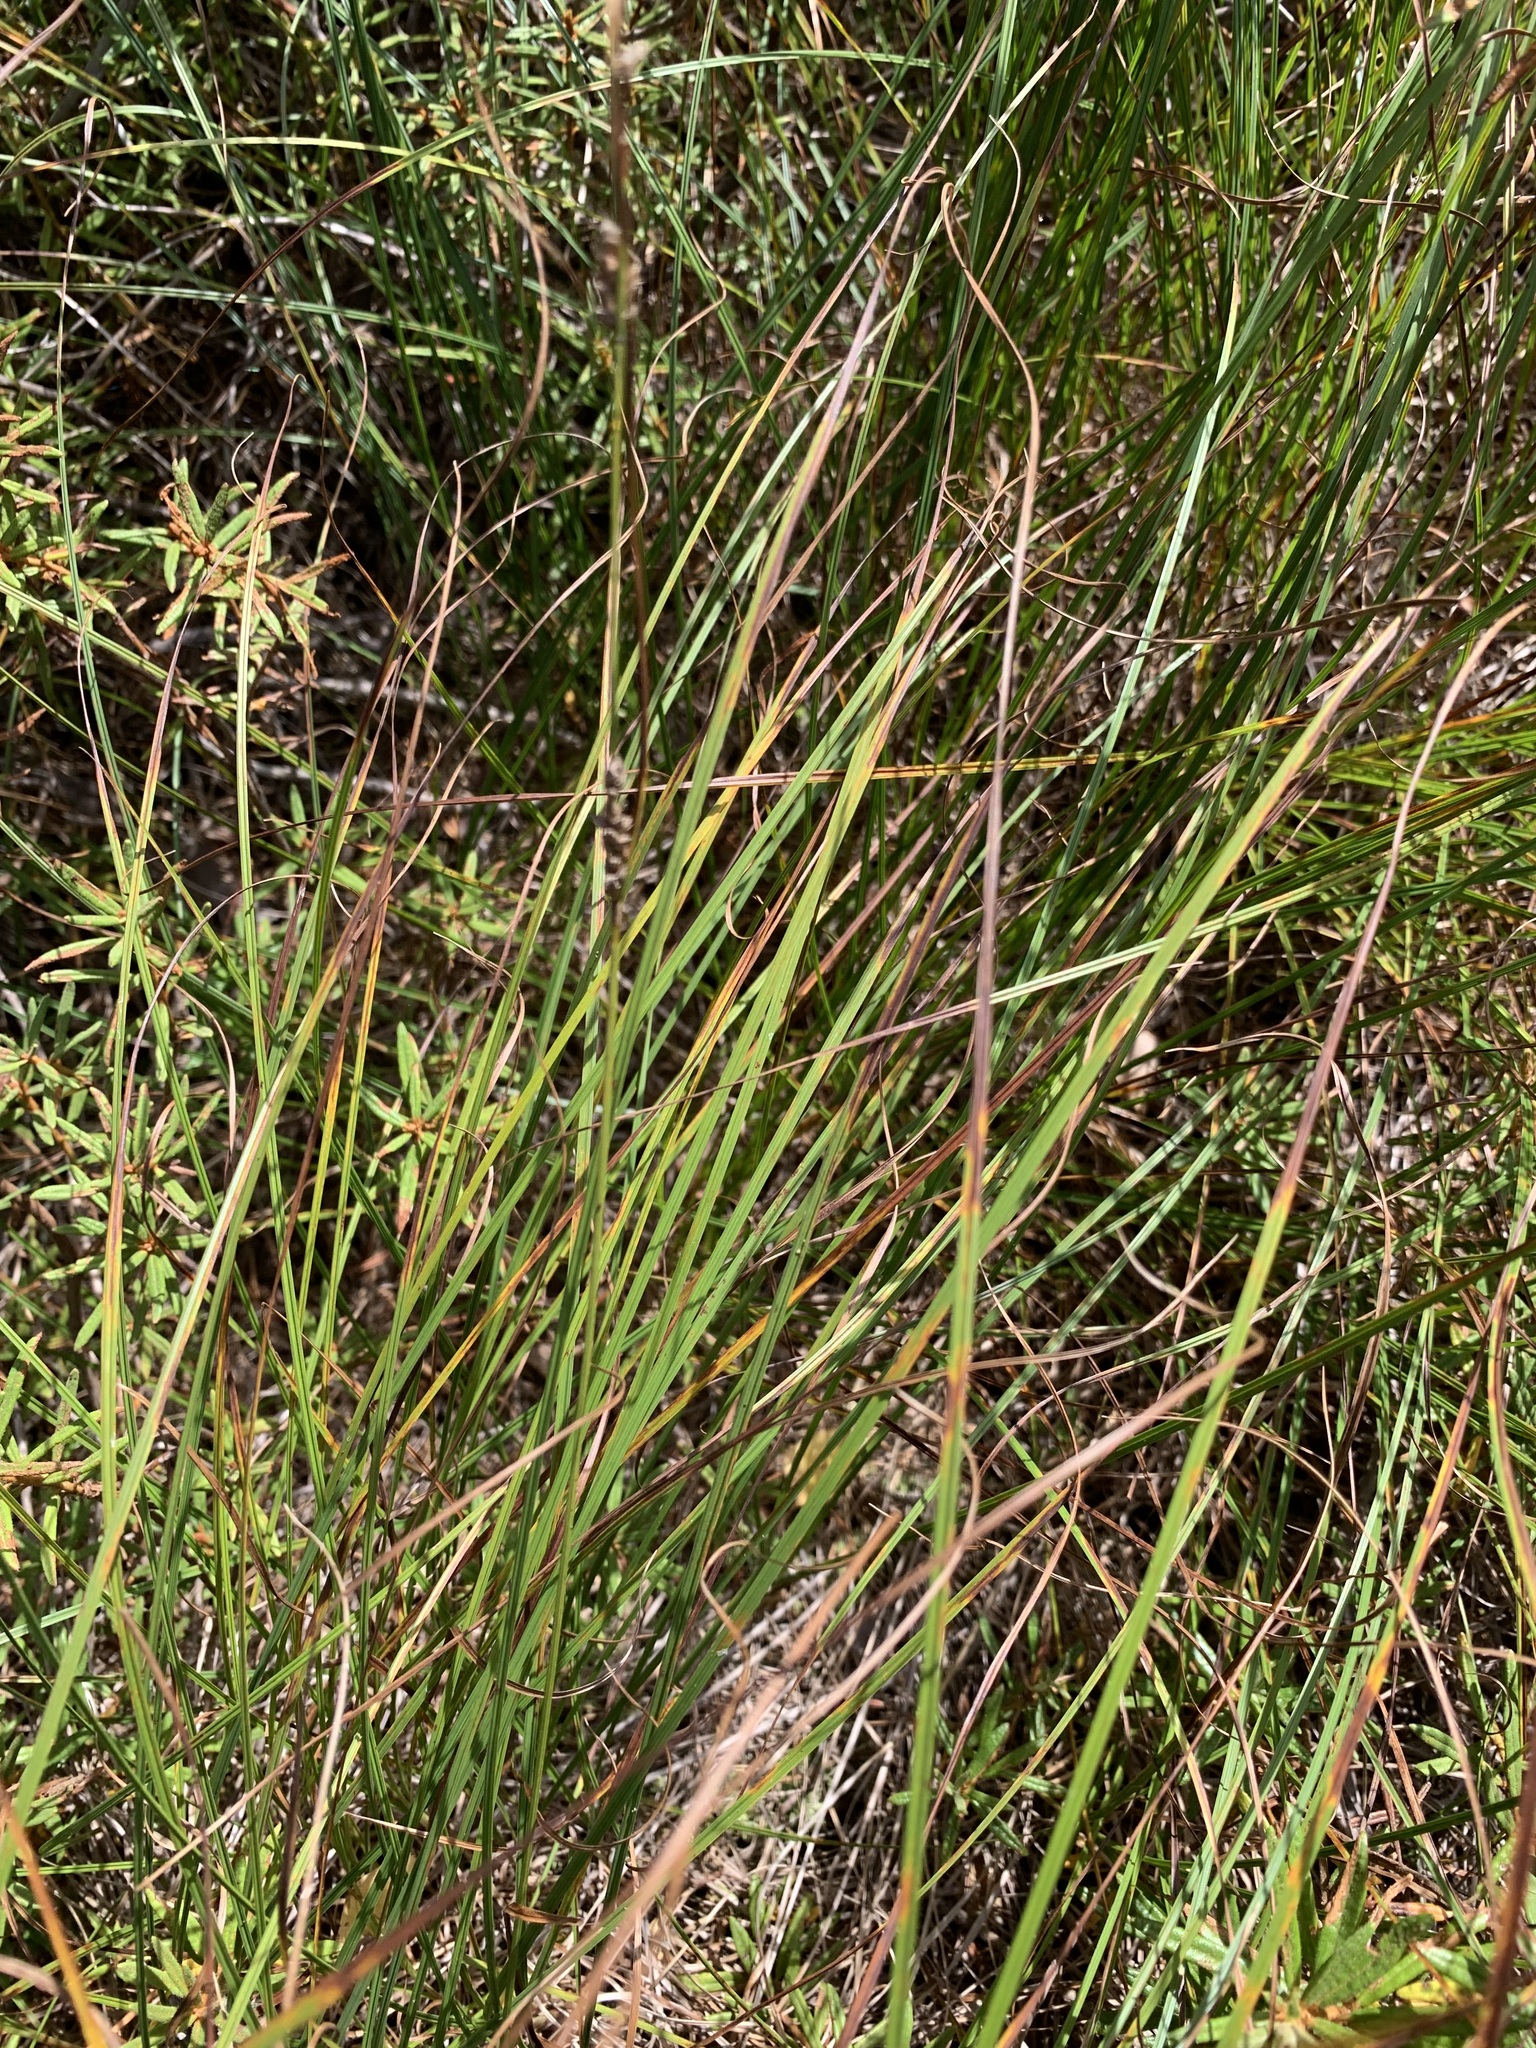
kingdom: Plantae
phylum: Tracheophyta
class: Liliopsida
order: Poales
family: Cyperaceae
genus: Carex
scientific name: Carex globularis
